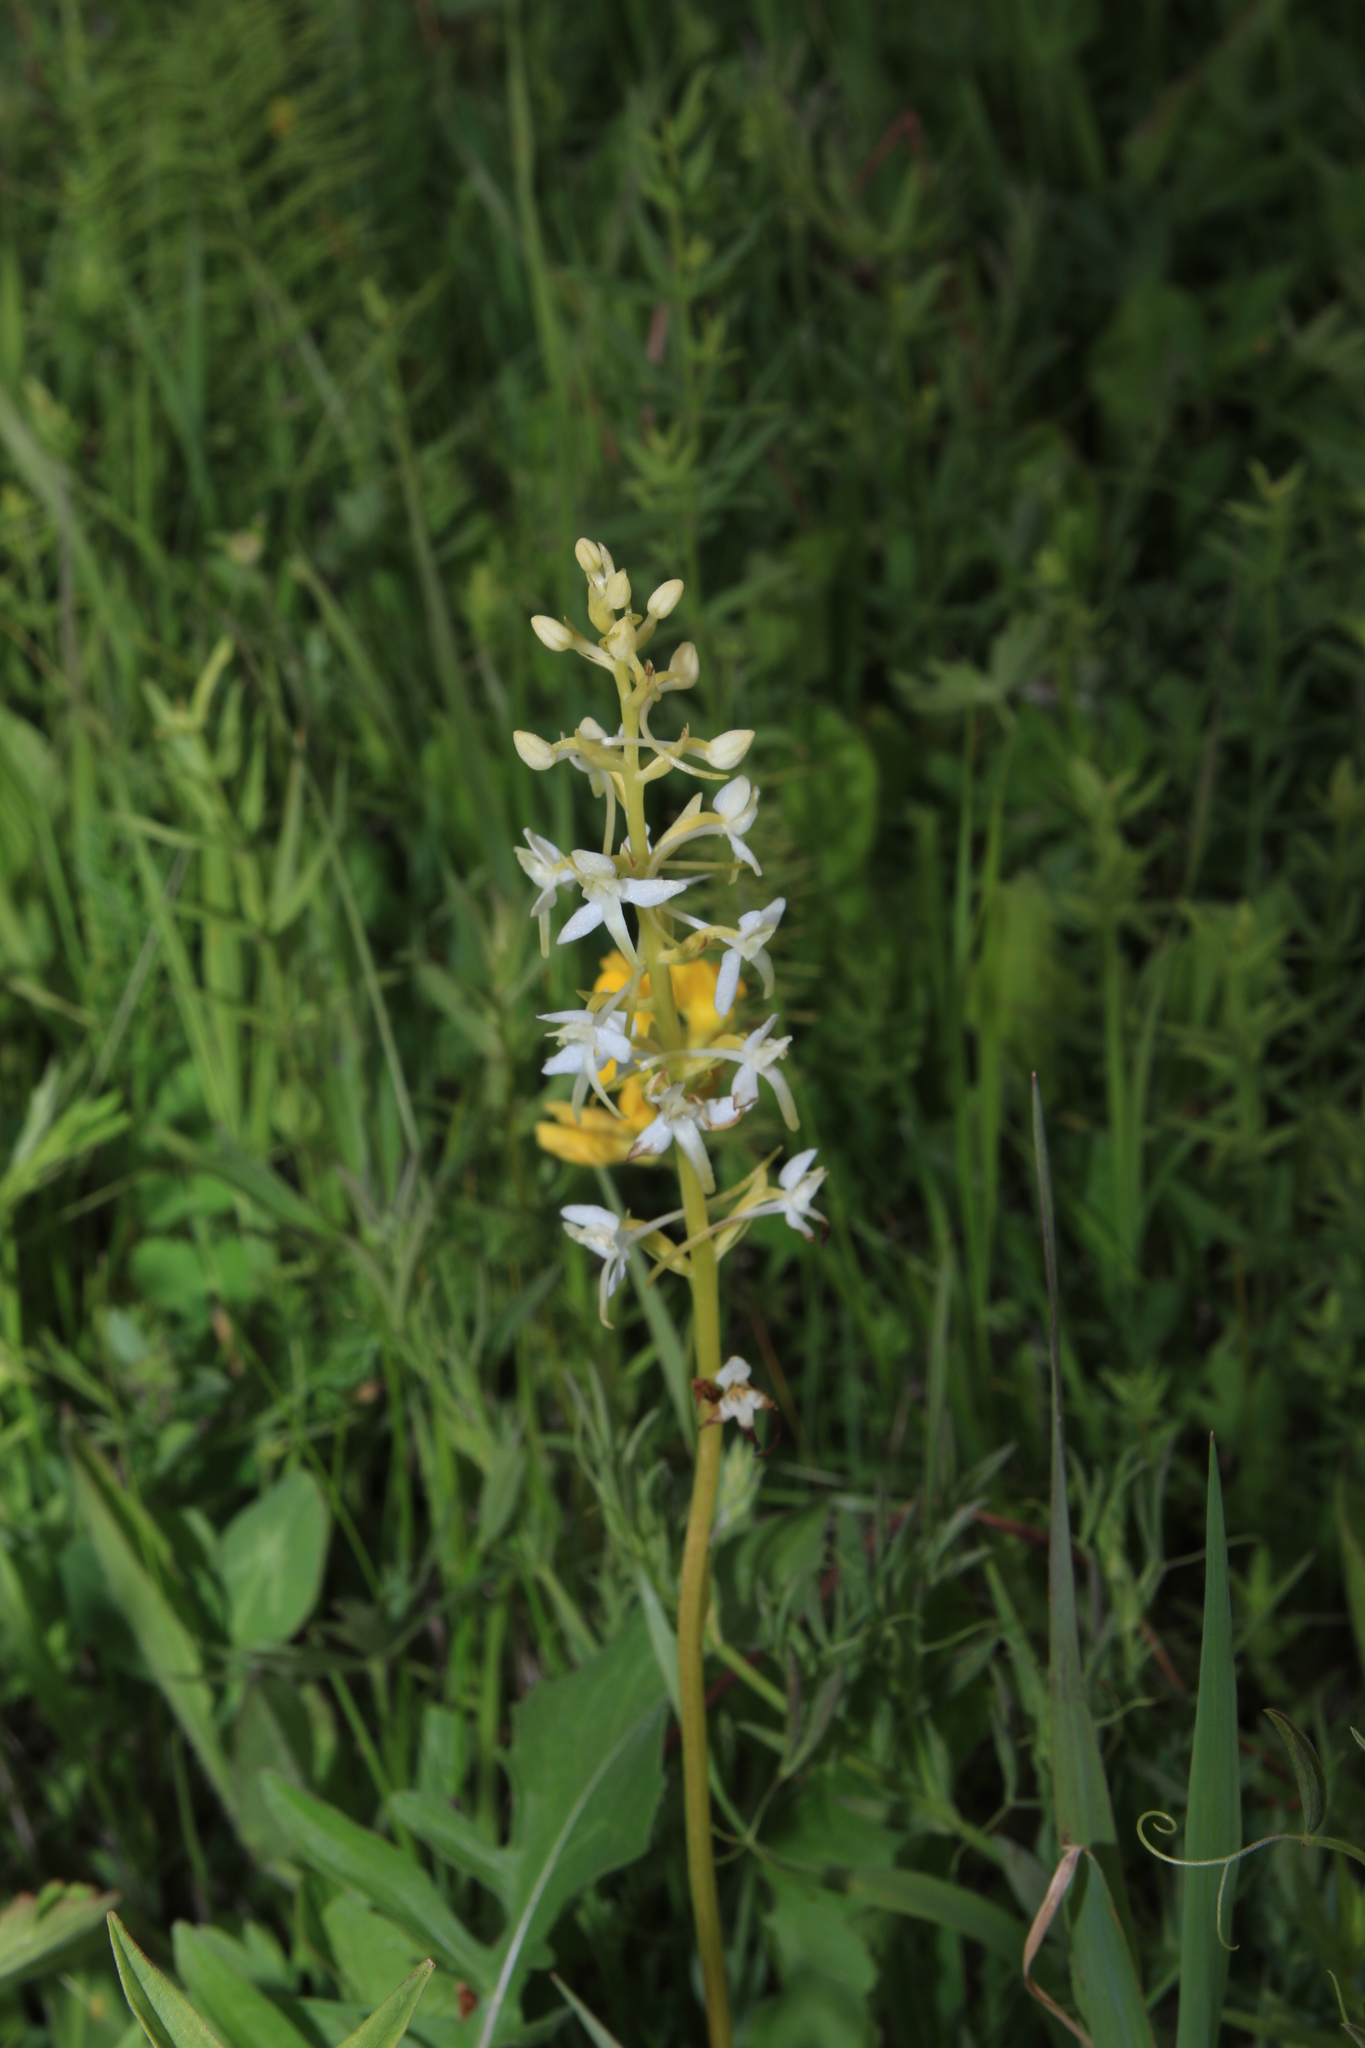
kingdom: Plantae
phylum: Tracheophyta
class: Liliopsida
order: Asparagales
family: Orchidaceae
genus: Platanthera
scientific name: Platanthera bifolia
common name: Lesser butterfly-orchid
